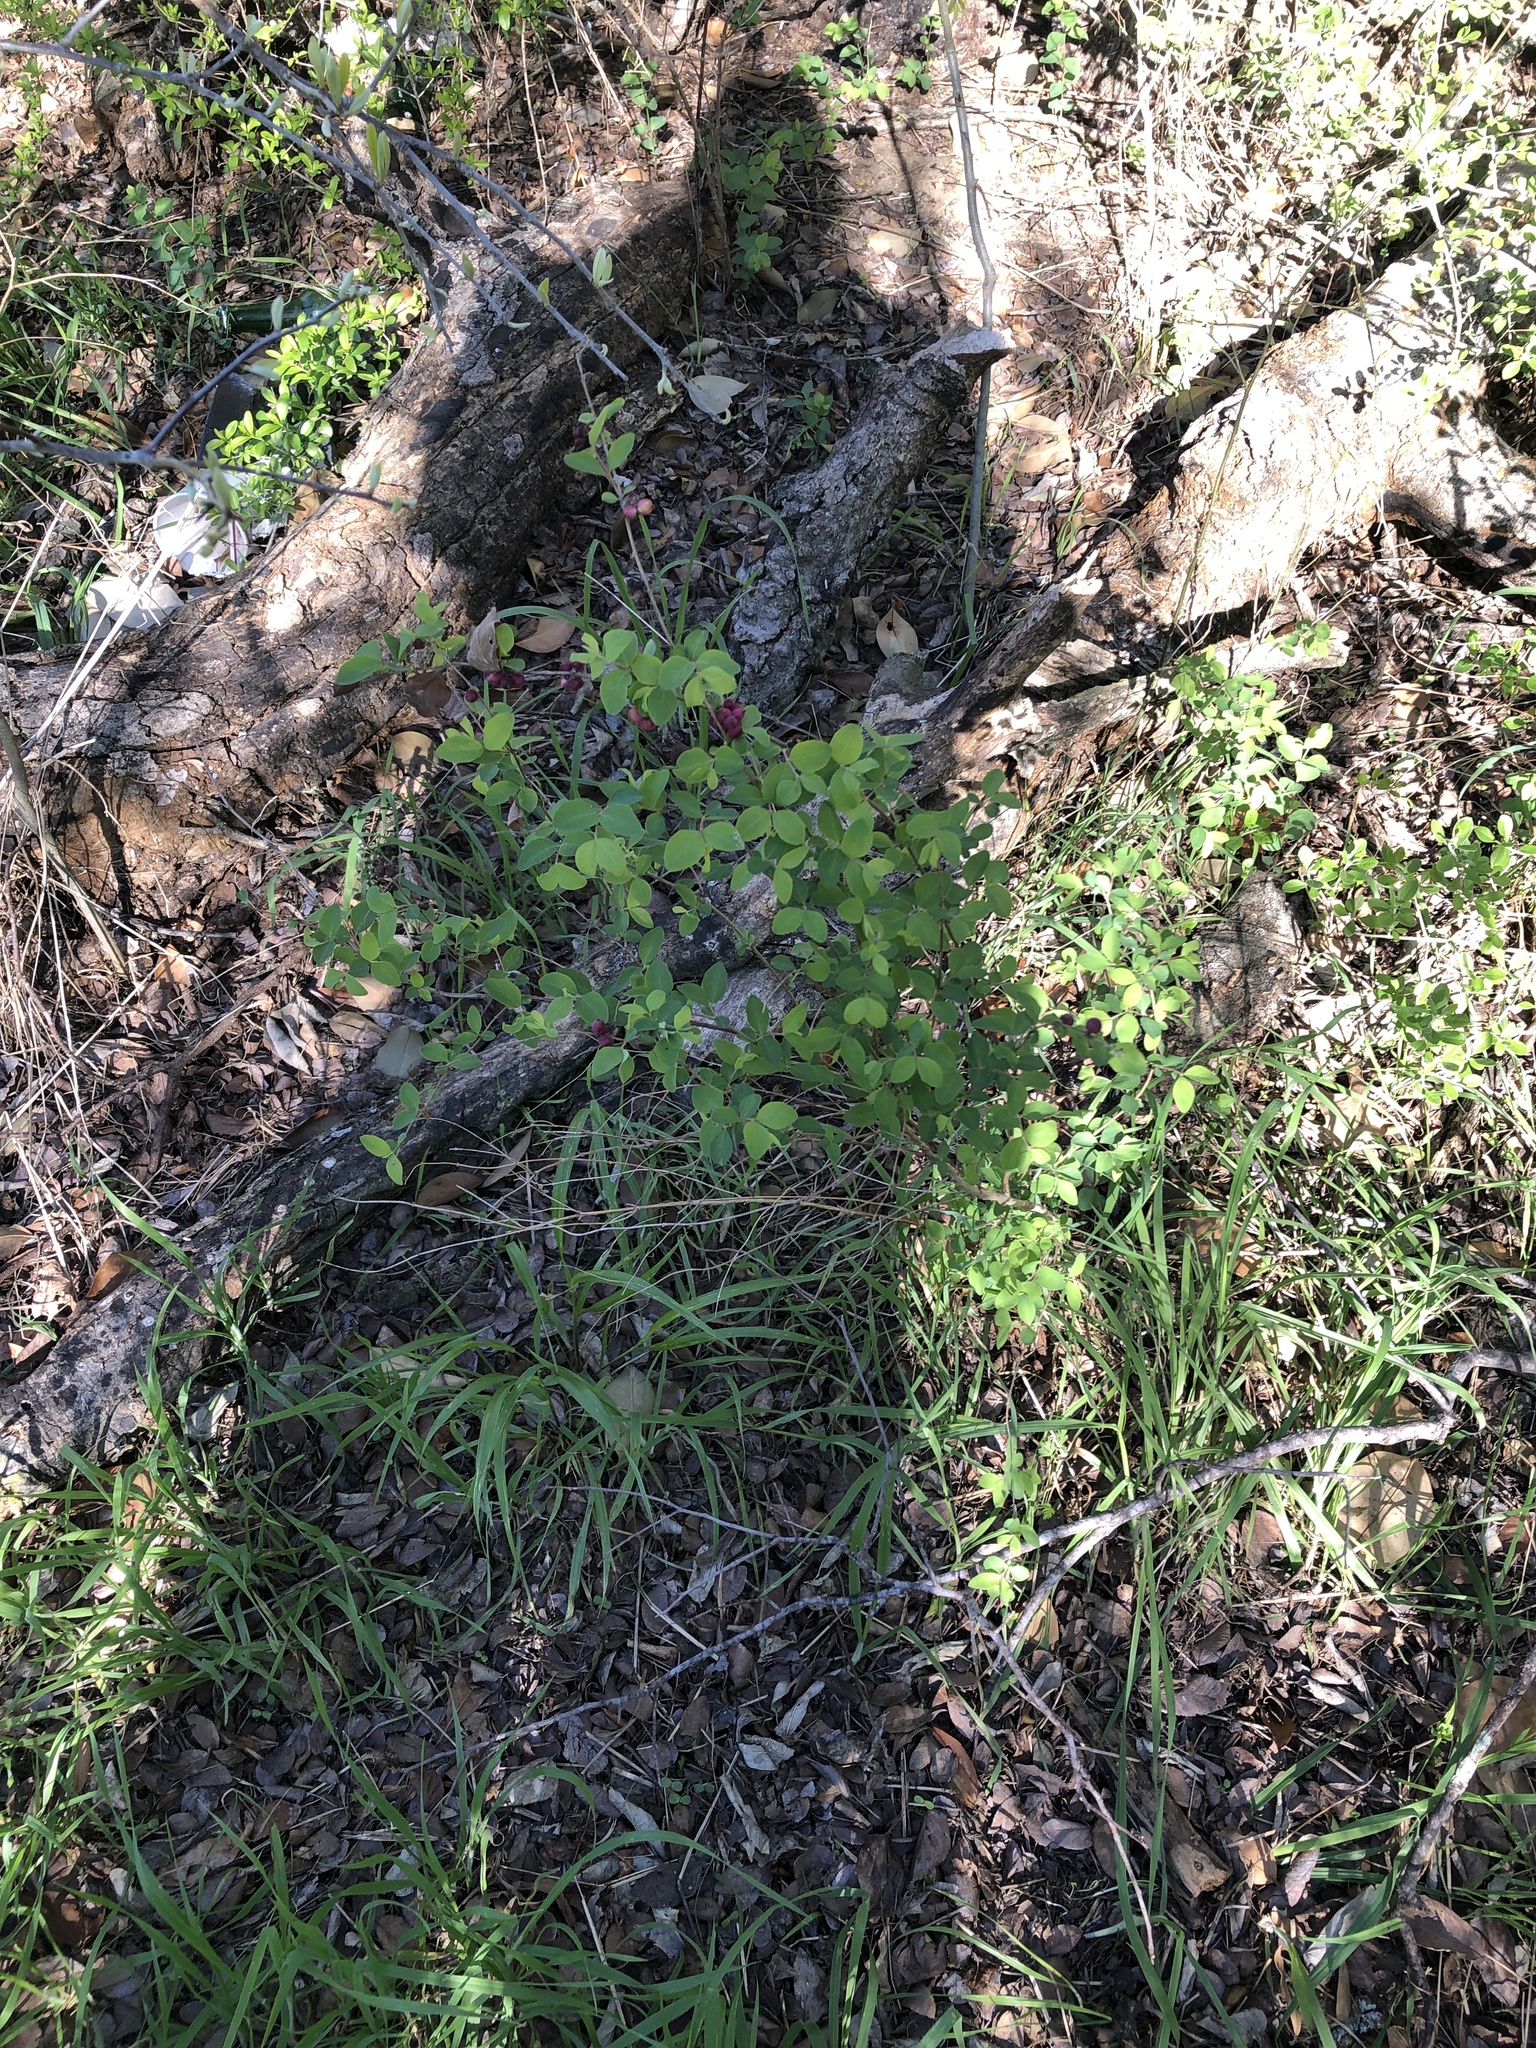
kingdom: Plantae
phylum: Tracheophyta
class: Magnoliopsida
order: Dipsacales
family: Caprifoliaceae
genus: Symphoricarpos
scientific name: Symphoricarpos orbiculatus
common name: Coralberry
